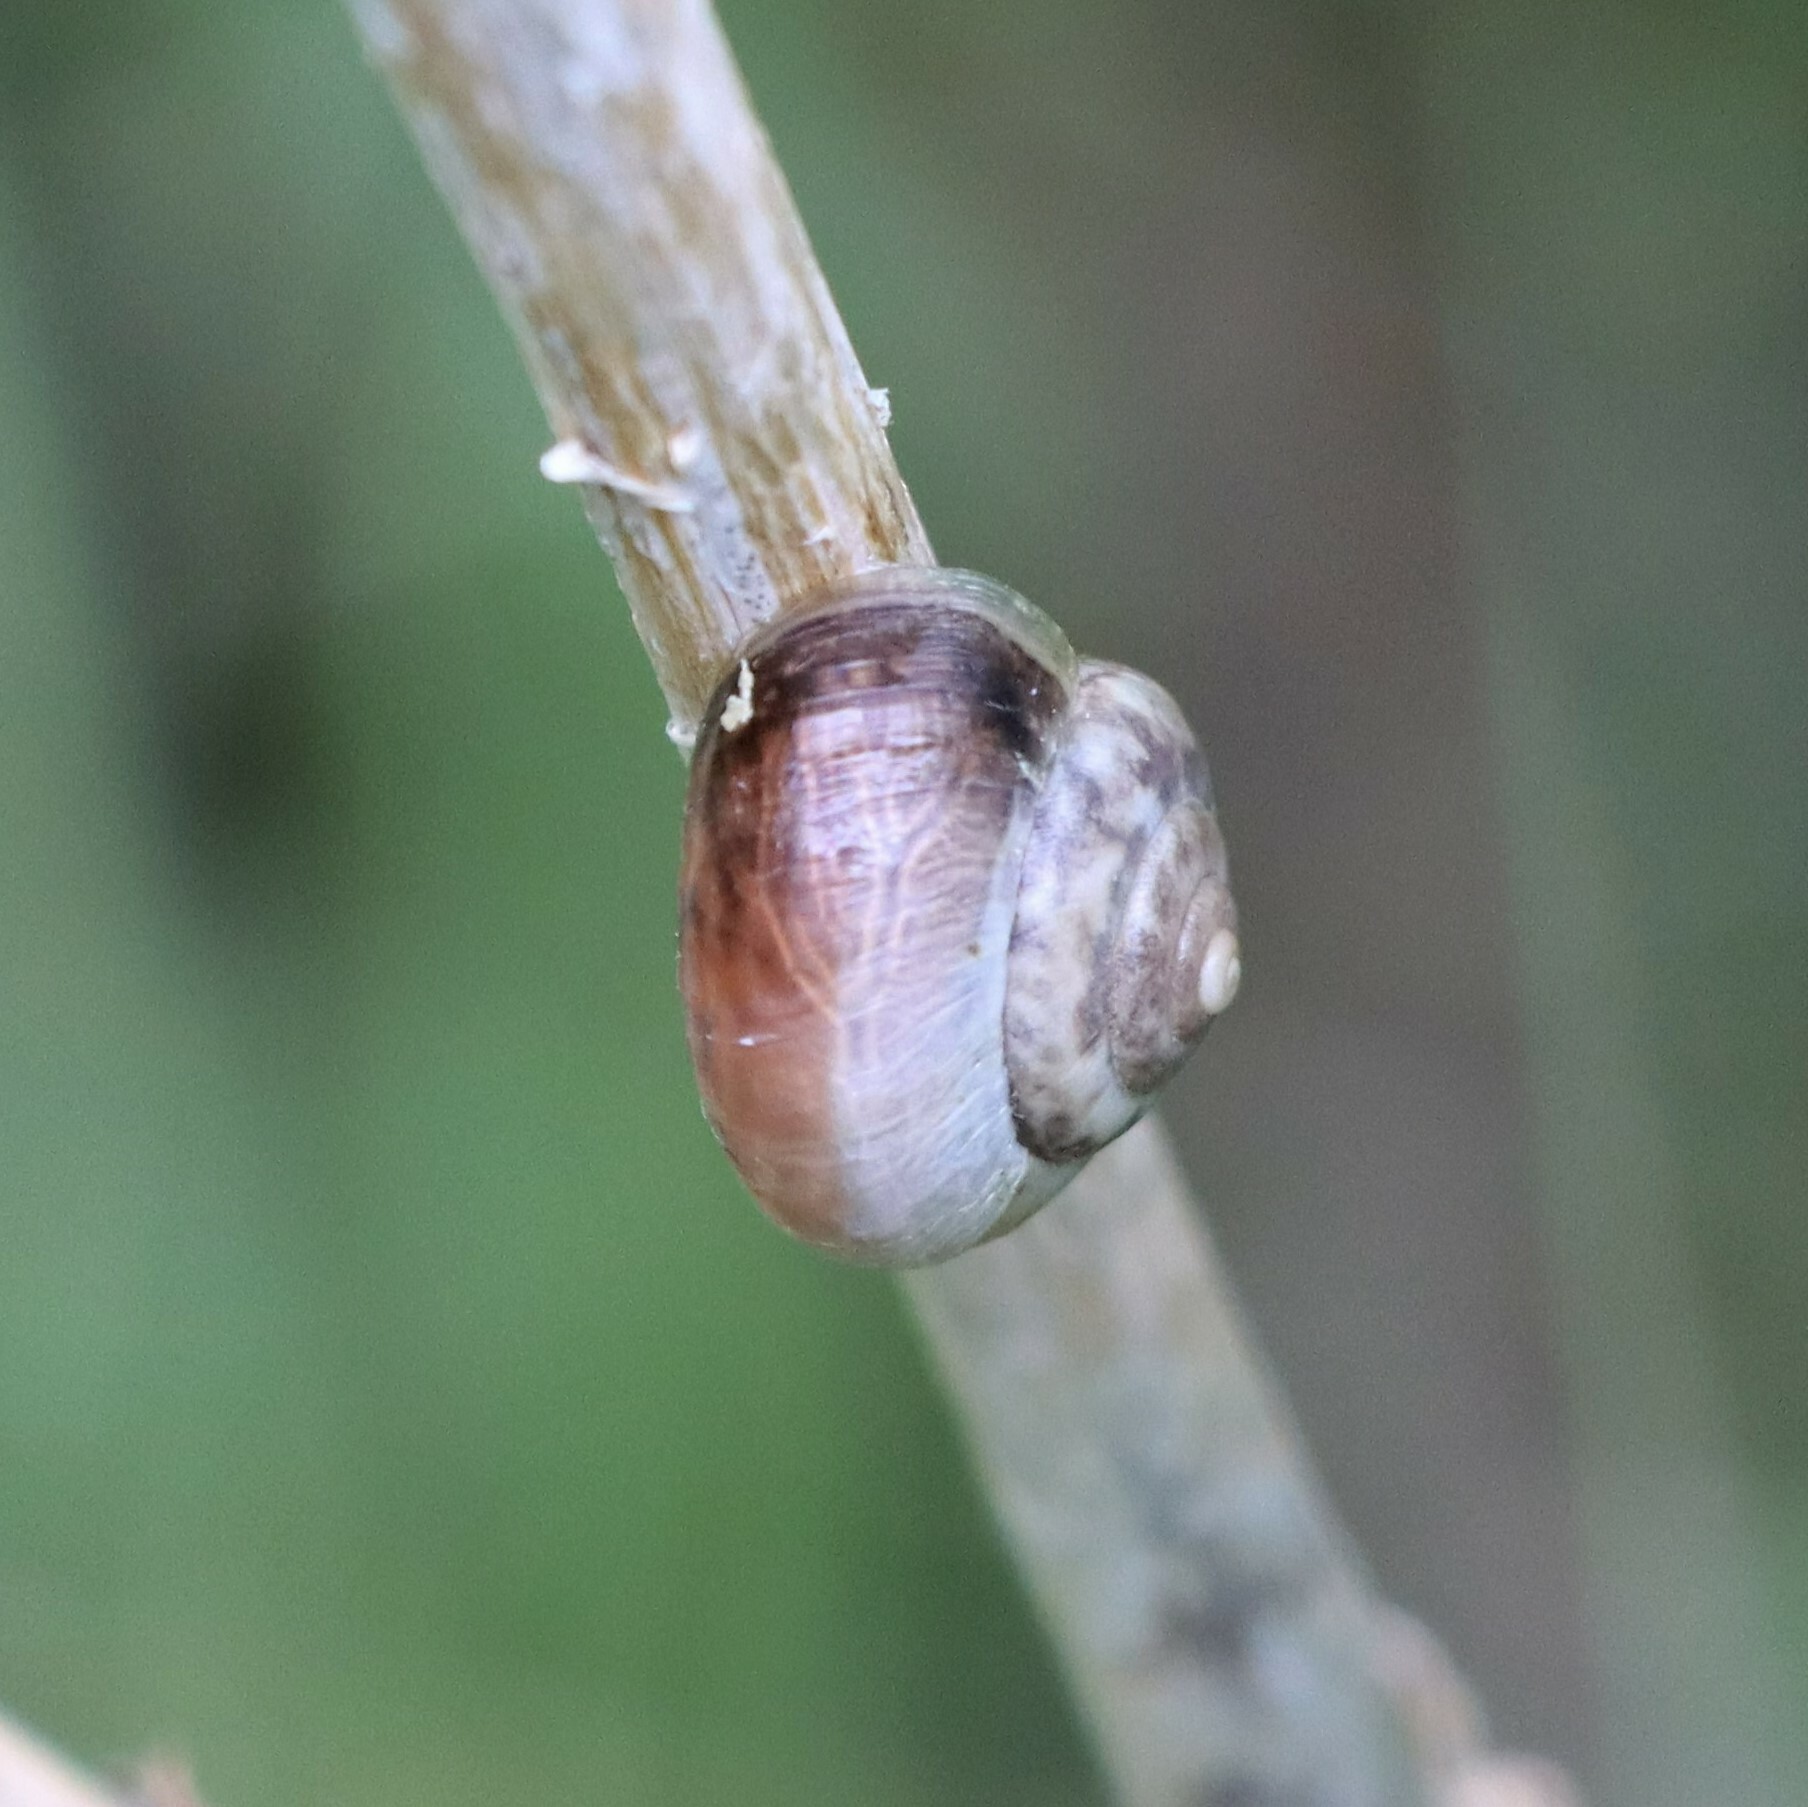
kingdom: Animalia
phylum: Mollusca
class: Gastropoda
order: Stylommatophora
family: Hygromiidae
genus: Monacha
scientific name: Monacha cantiana
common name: Kentish snail
